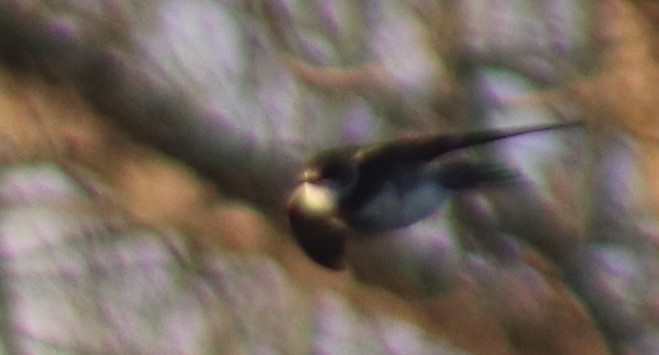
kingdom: Animalia
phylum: Chordata
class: Aves
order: Passeriformes
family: Hirundinidae
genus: Riparia
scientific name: Riparia riparia
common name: Sand martin
